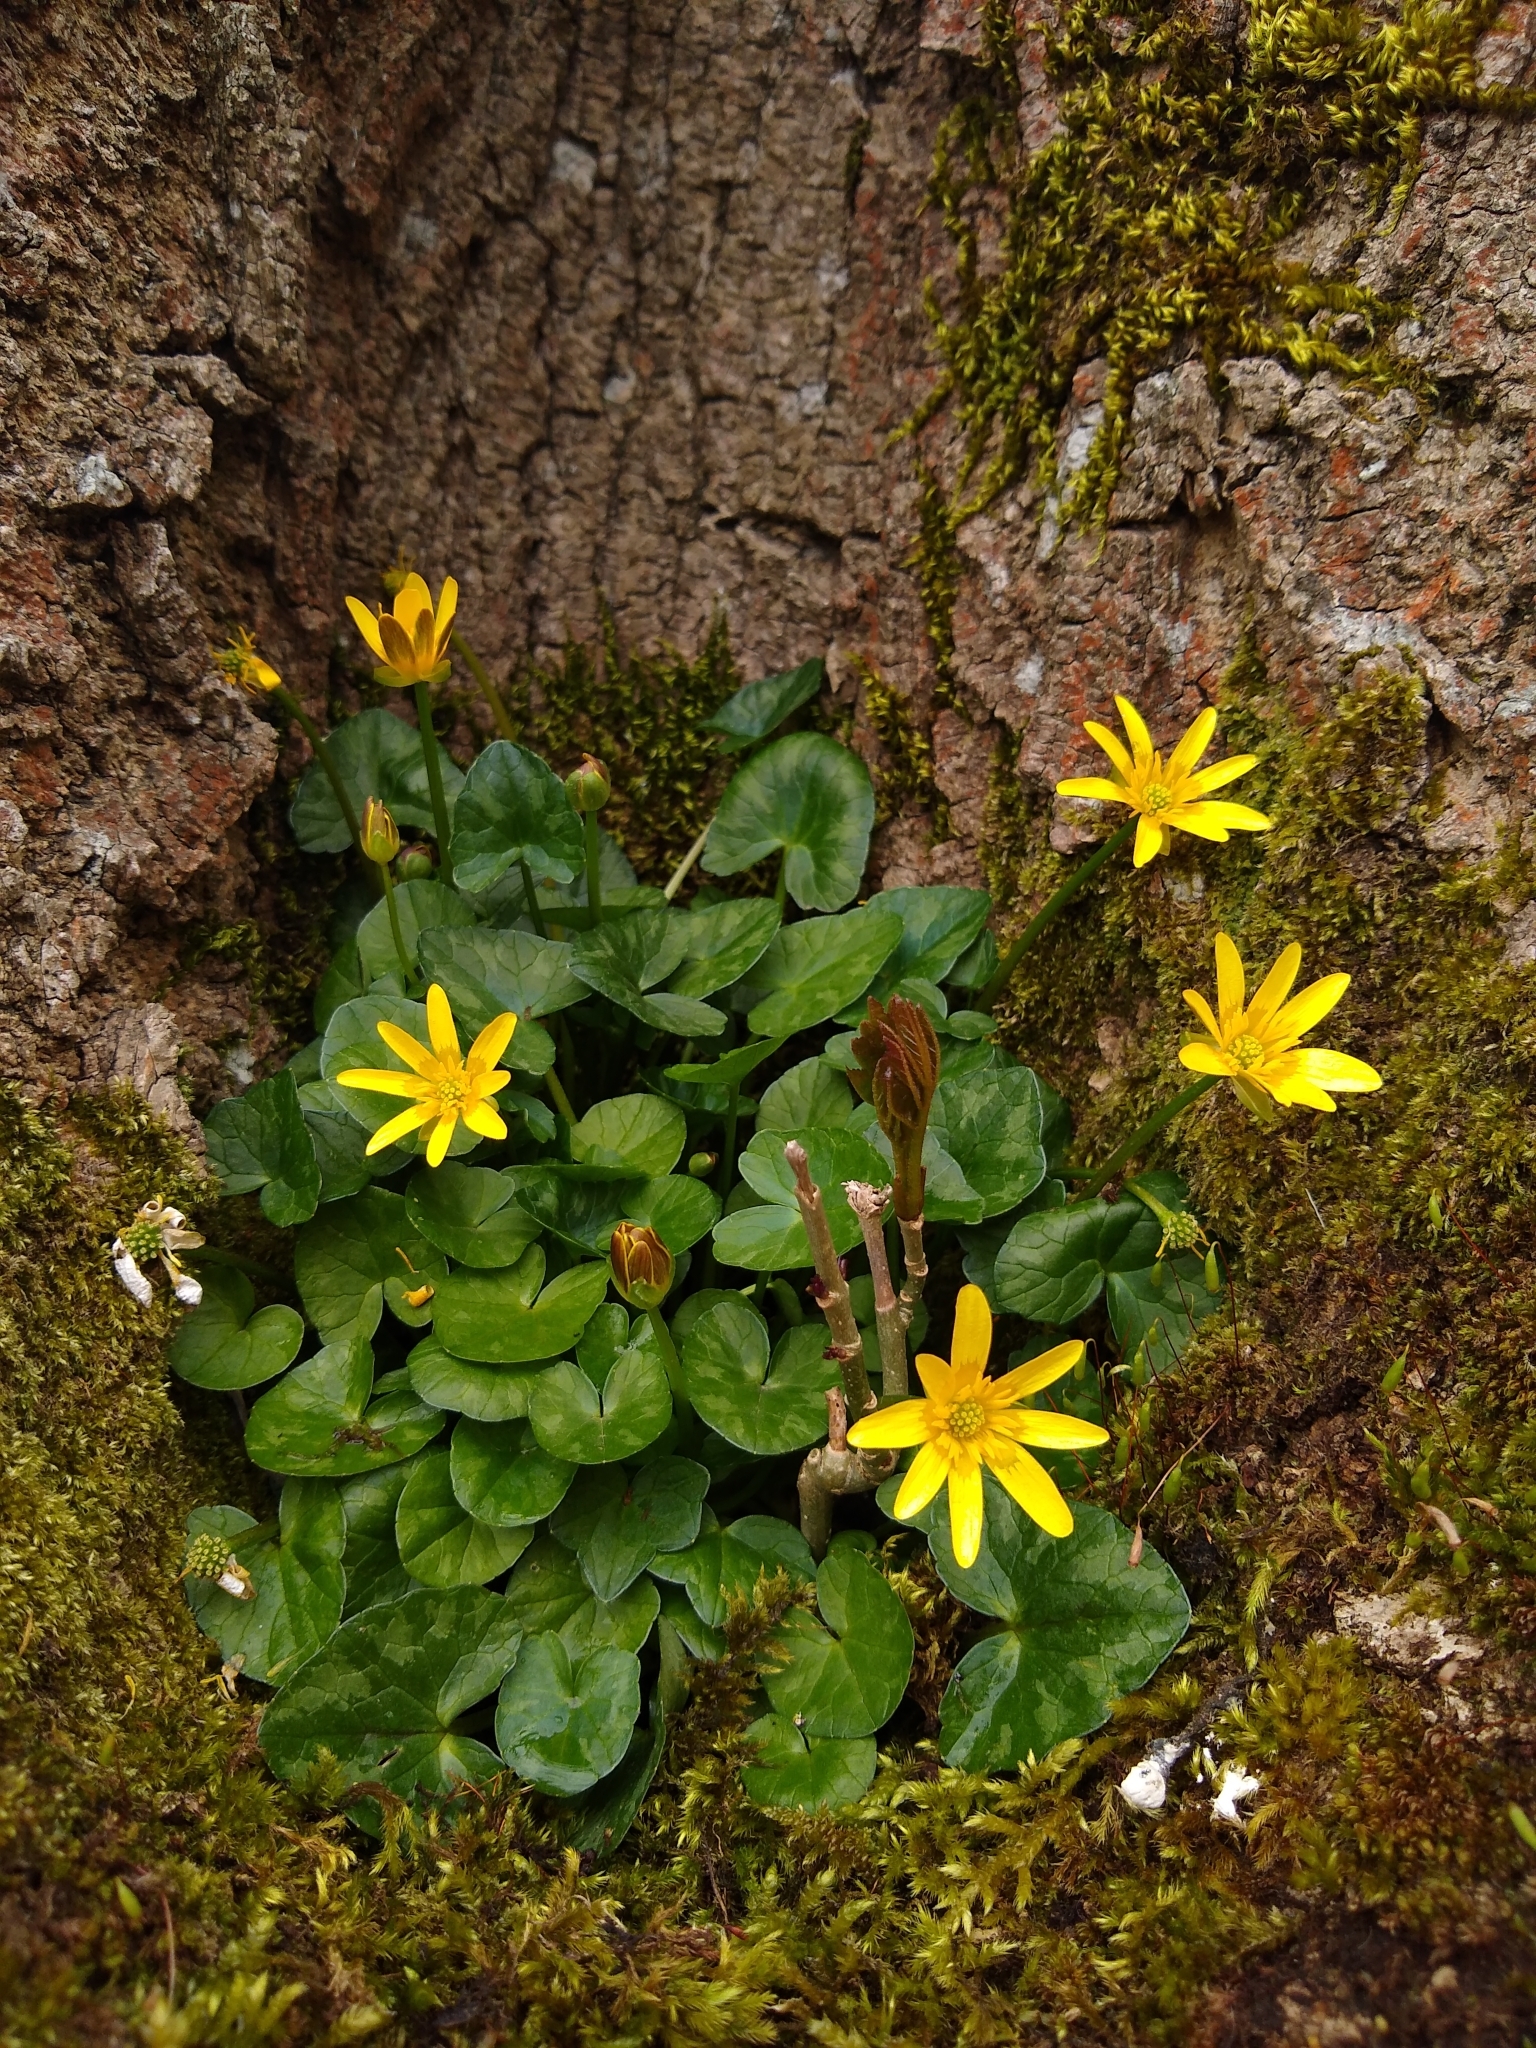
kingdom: Plantae
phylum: Tracheophyta
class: Magnoliopsida
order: Ranunculales
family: Ranunculaceae
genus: Ficaria
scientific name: Ficaria verna
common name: Lesser celandine
